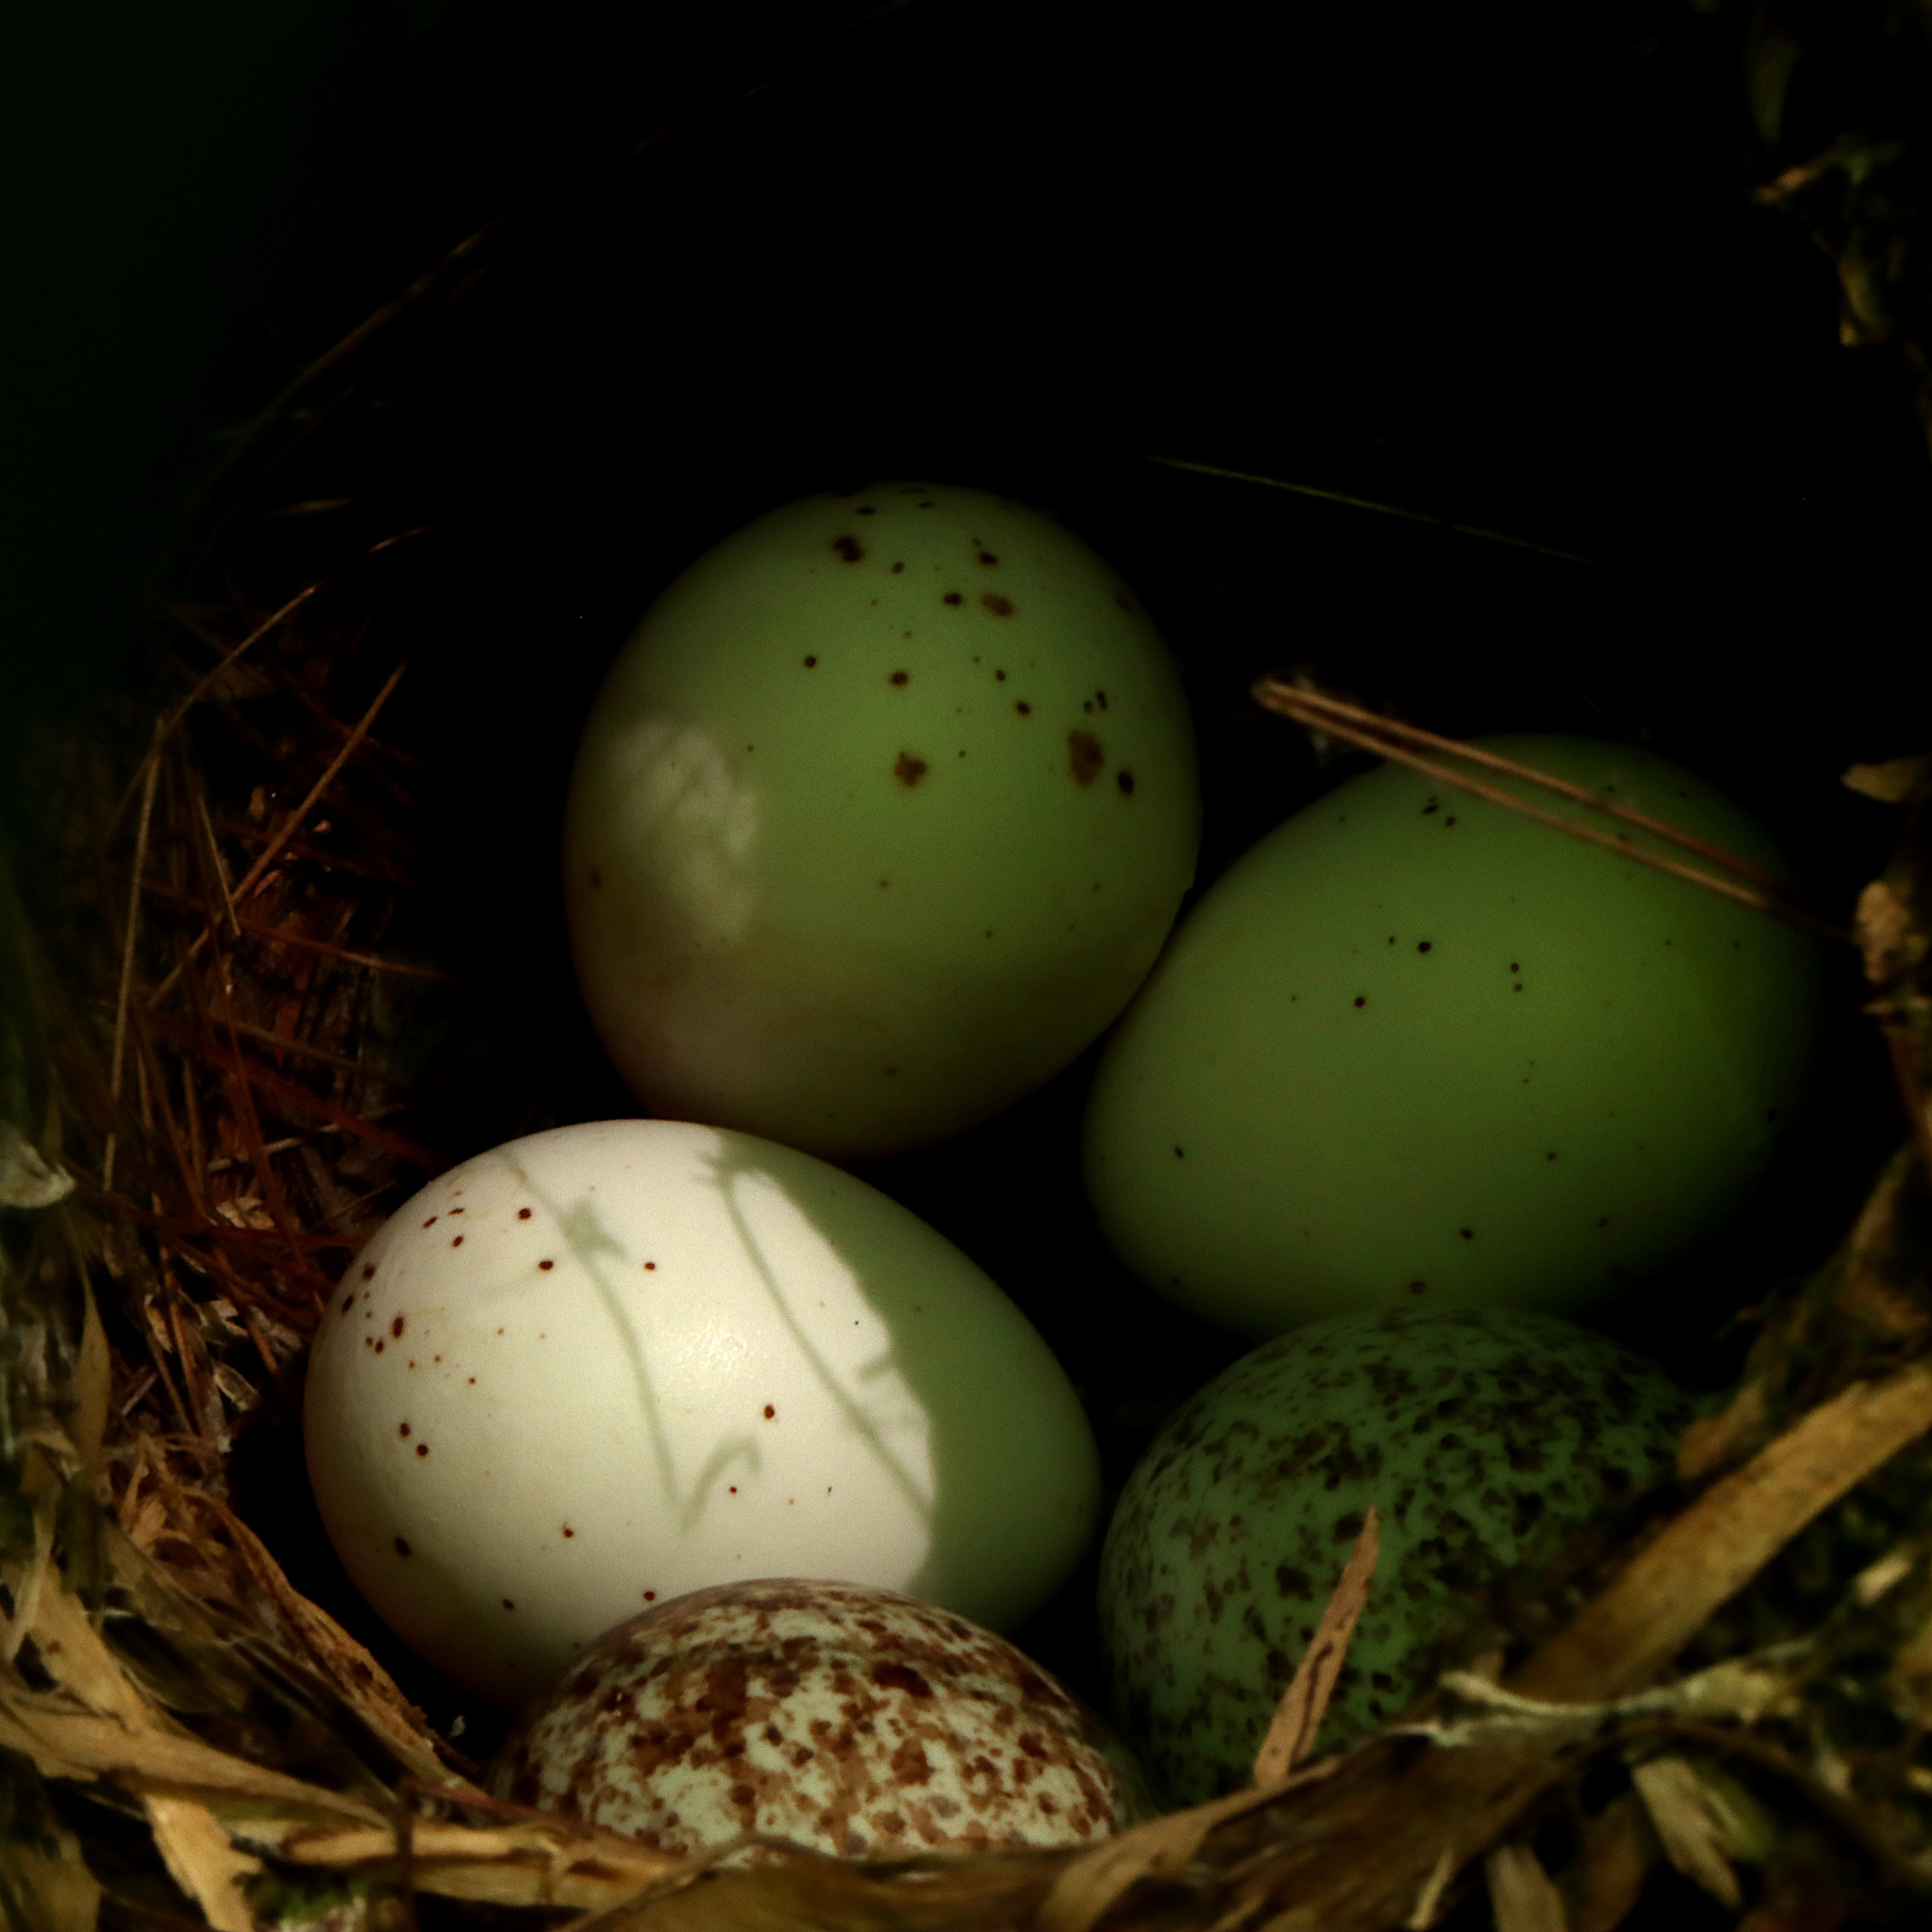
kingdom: Animalia
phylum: Chordata
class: Aves
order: Passeriformes
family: Vireonidae
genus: Vireo
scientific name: Vireo griseus
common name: White-eyed vireo
